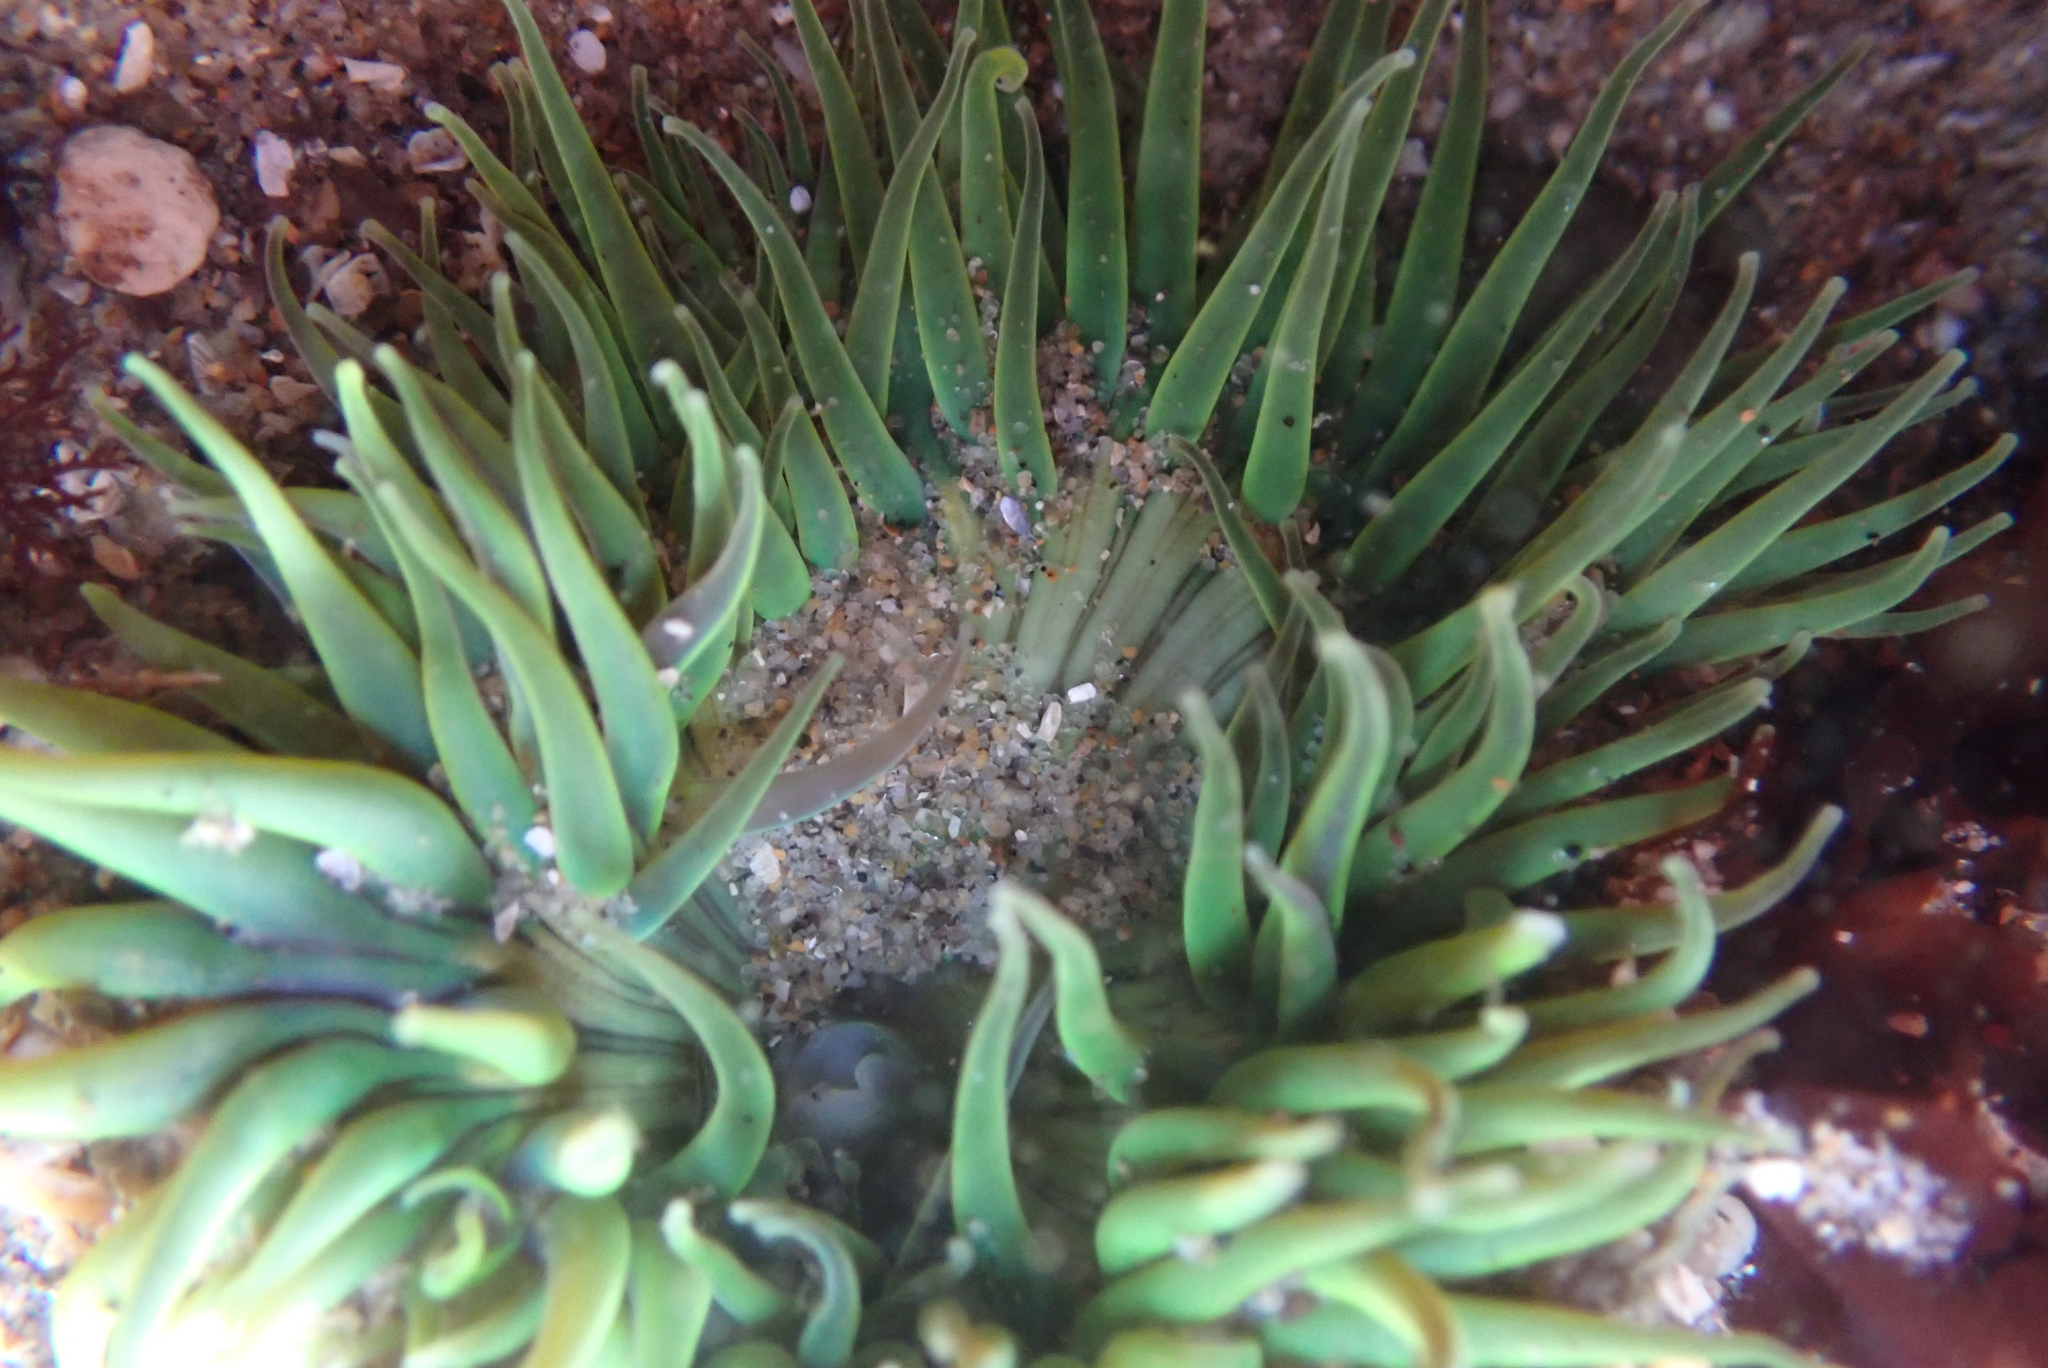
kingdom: Animalia
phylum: Cnidaria
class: Anthozoa
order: Actiniaria
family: Actiniidae
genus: Anthopleura
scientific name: Anthopleura sola
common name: Sun anemone
